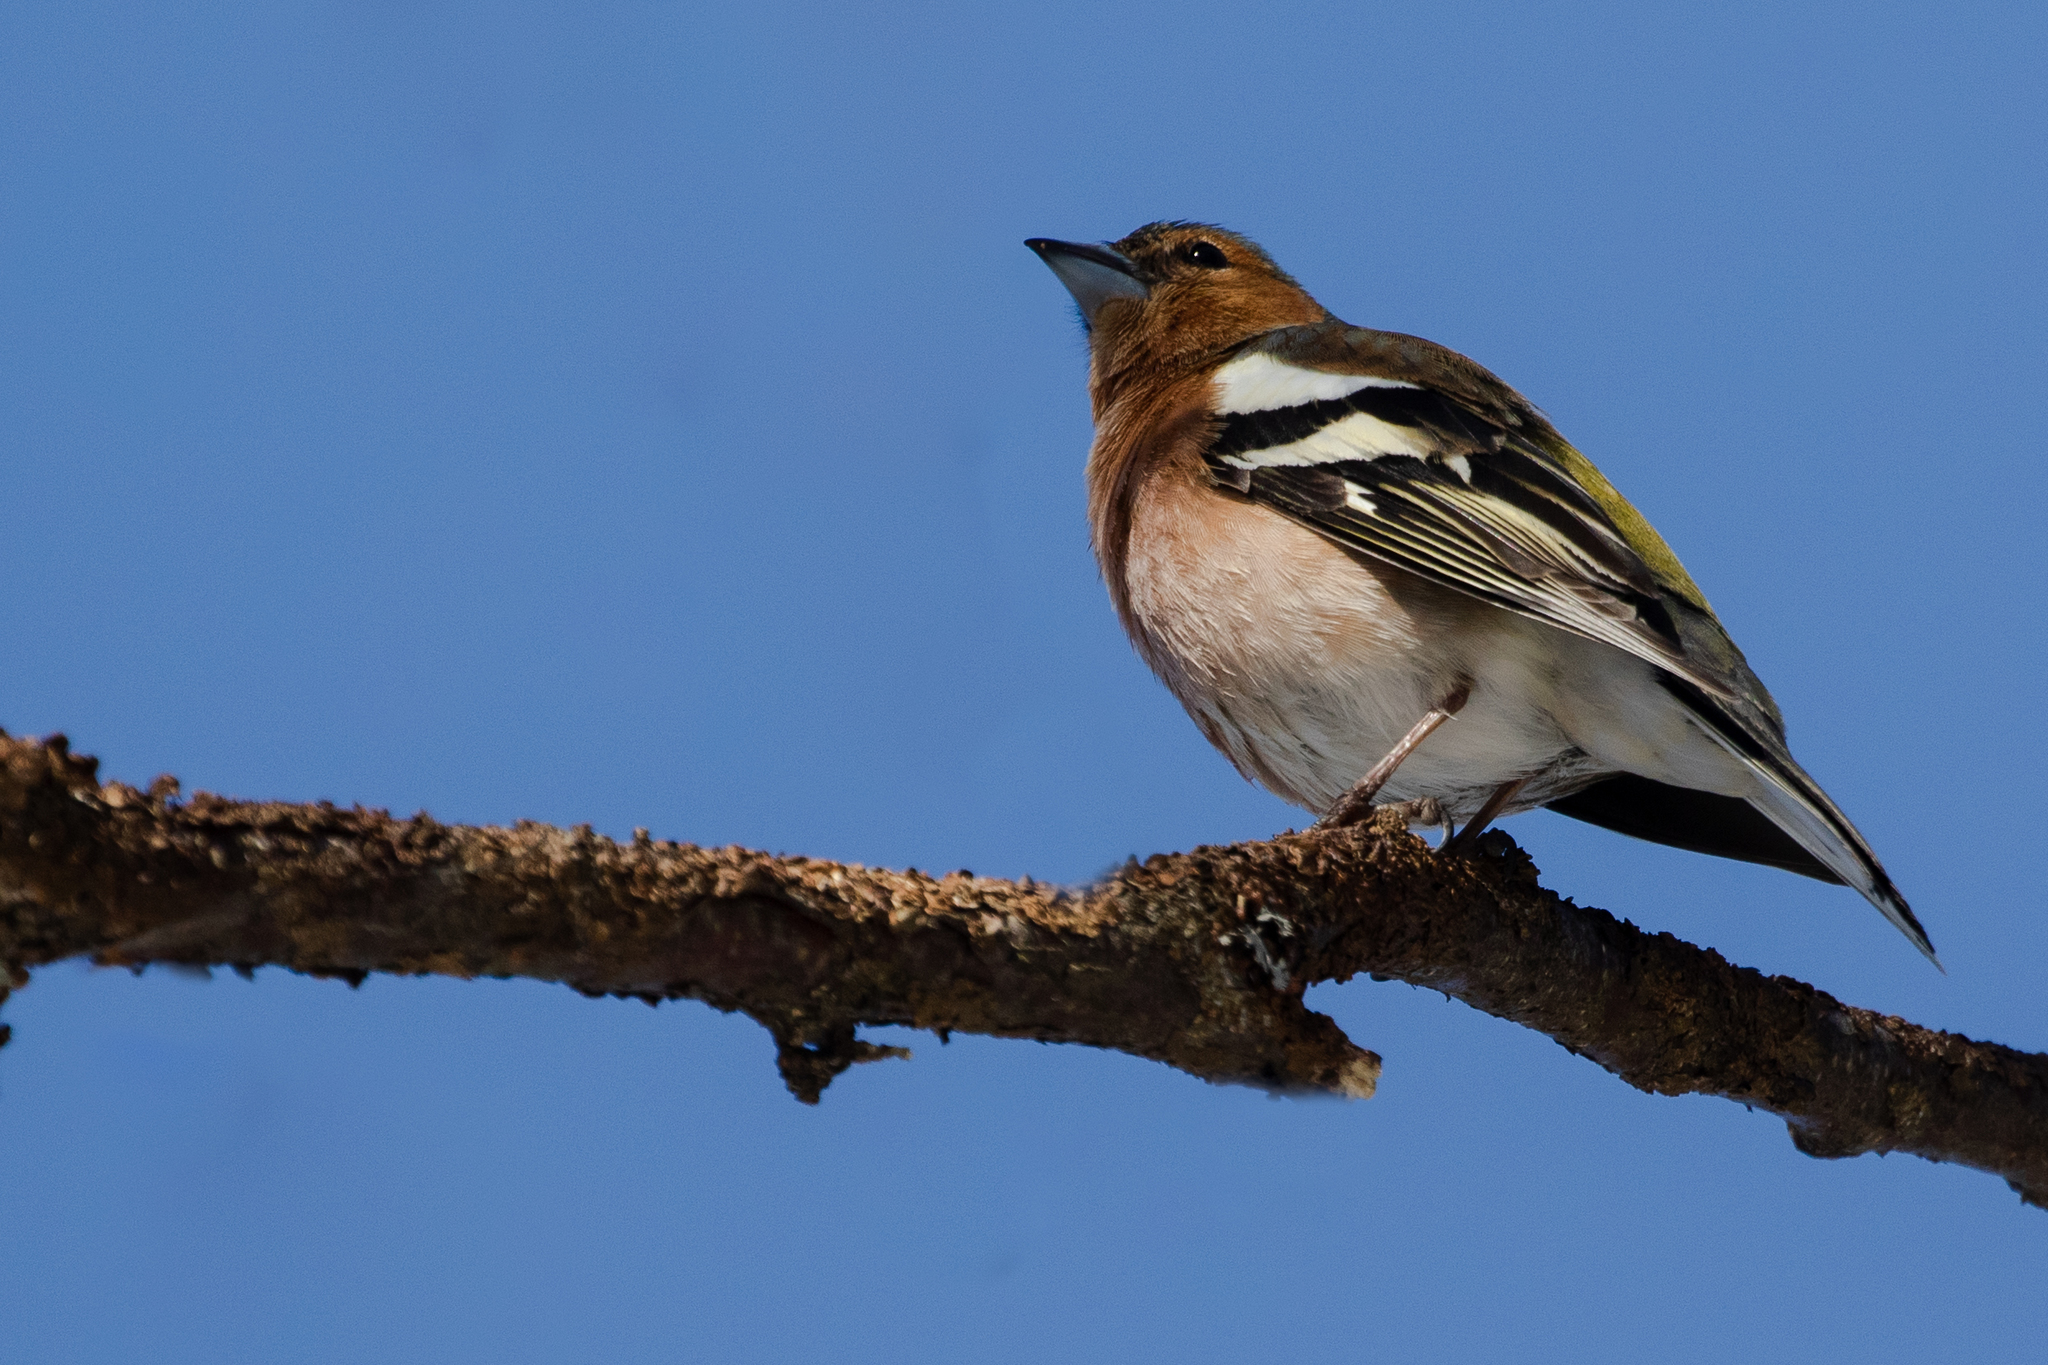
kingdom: Animalia
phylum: Chordata
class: Aves
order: Passeriformes
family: Fringillidae
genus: Fringilla
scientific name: Fringilla coelebs
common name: Common chaffinch
